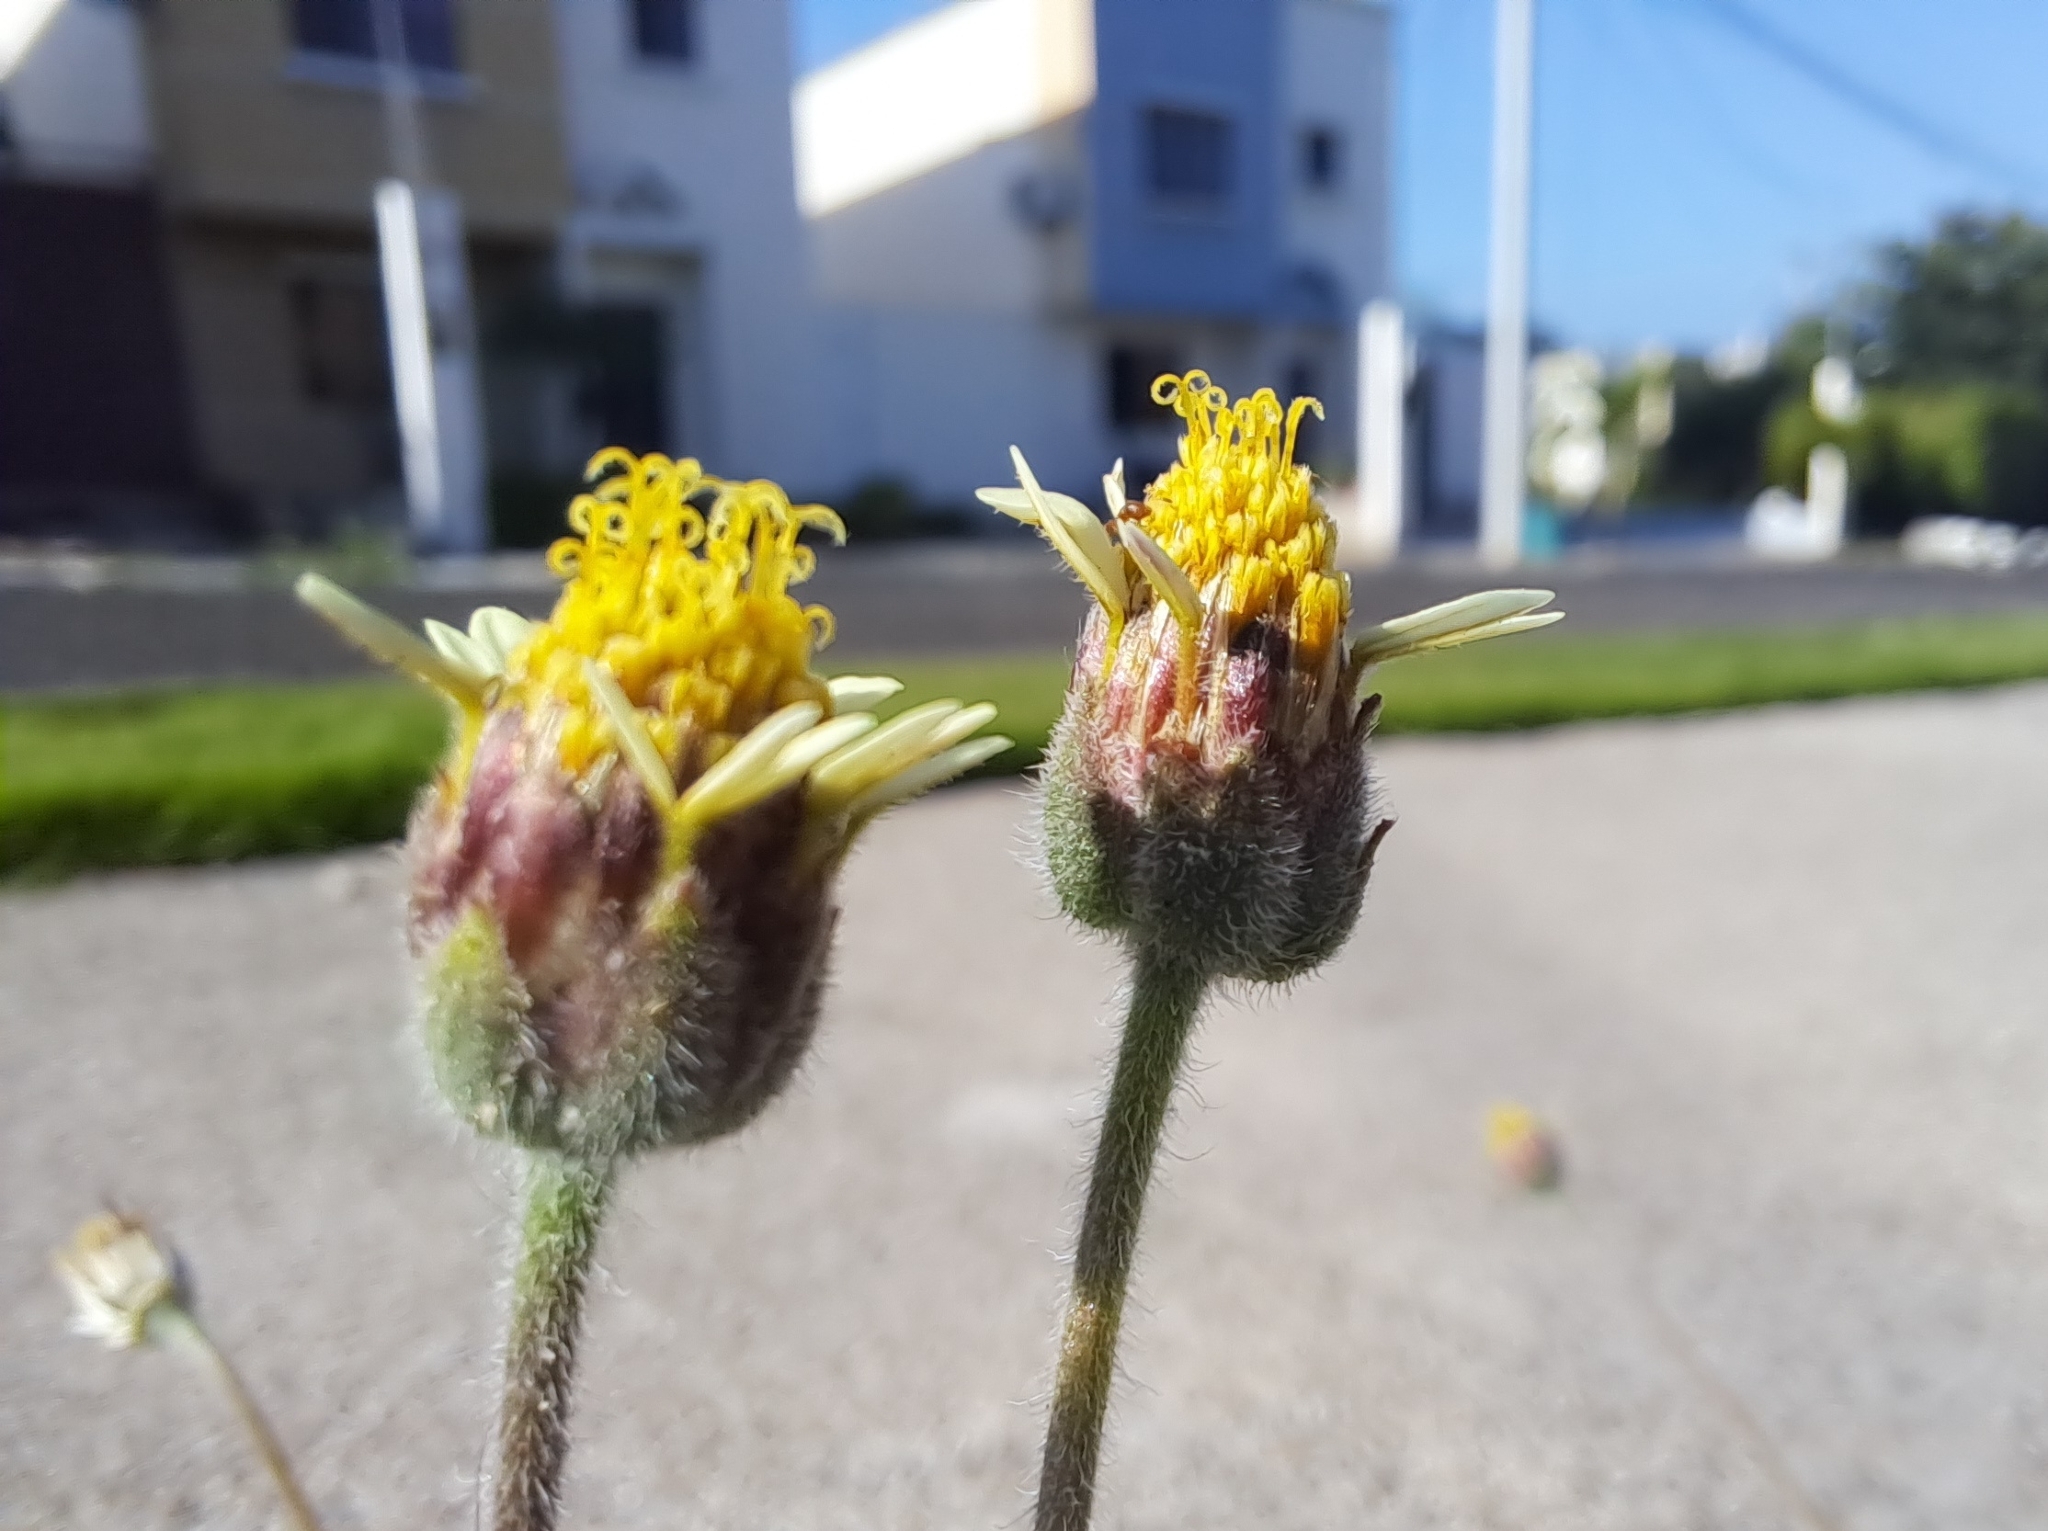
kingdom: Plantae
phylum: Tracheophyta
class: Magnoliopsida
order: Asterales
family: Asteraceae
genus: Tridax
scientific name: Tridax procumbens
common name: Coatbuttons
